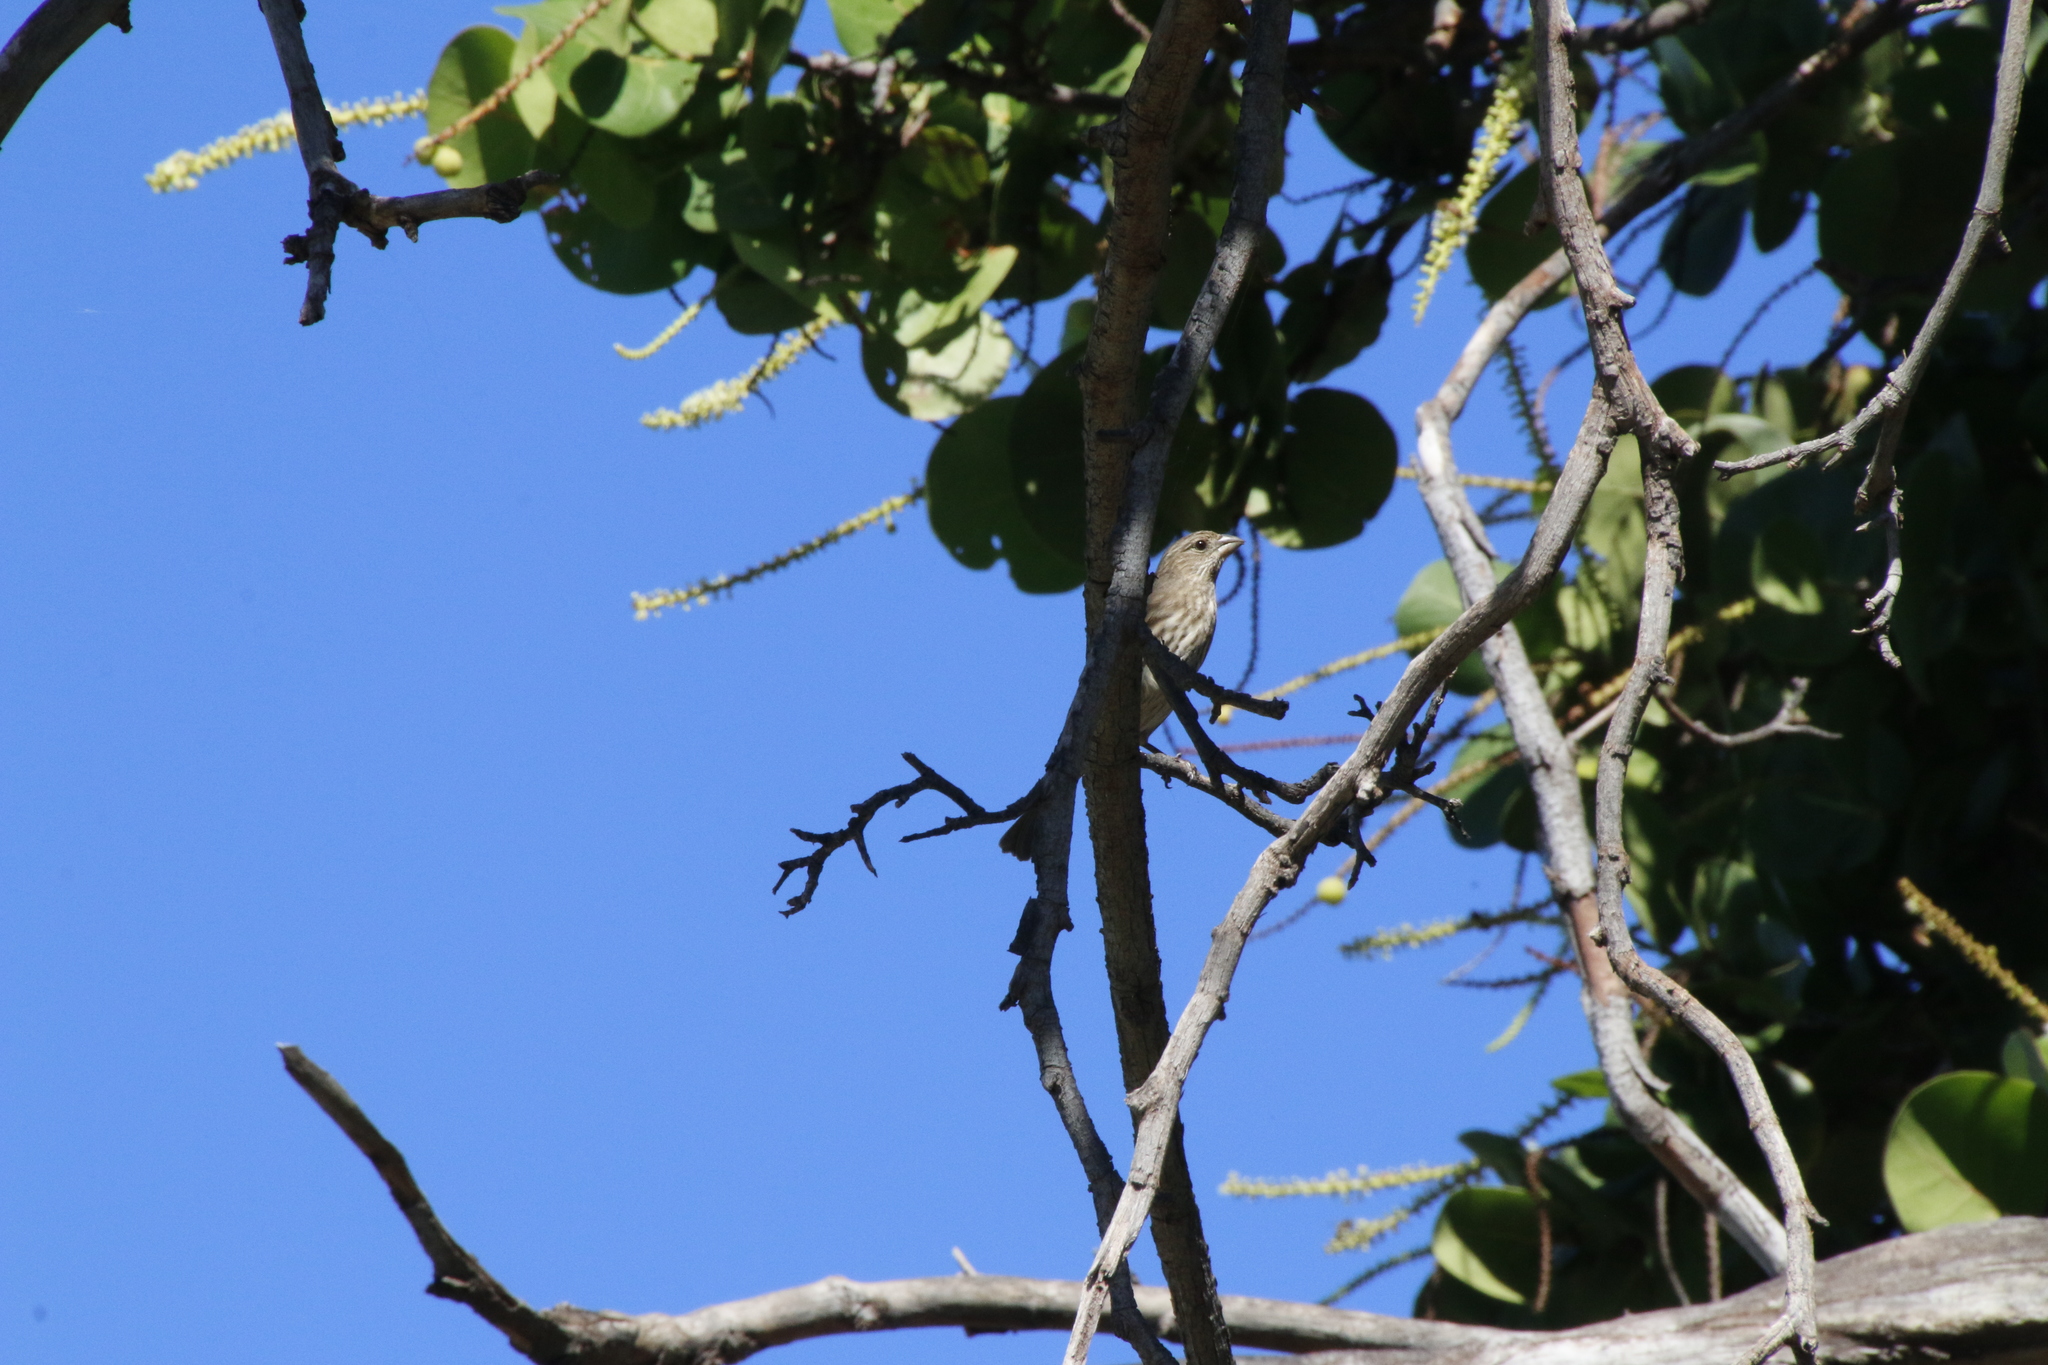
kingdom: Animalia
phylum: Chordata
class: Aves
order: Passeriformes
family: Fringillidae
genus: Haemorhous
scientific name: Haemorhous mexicanus
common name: House finch
